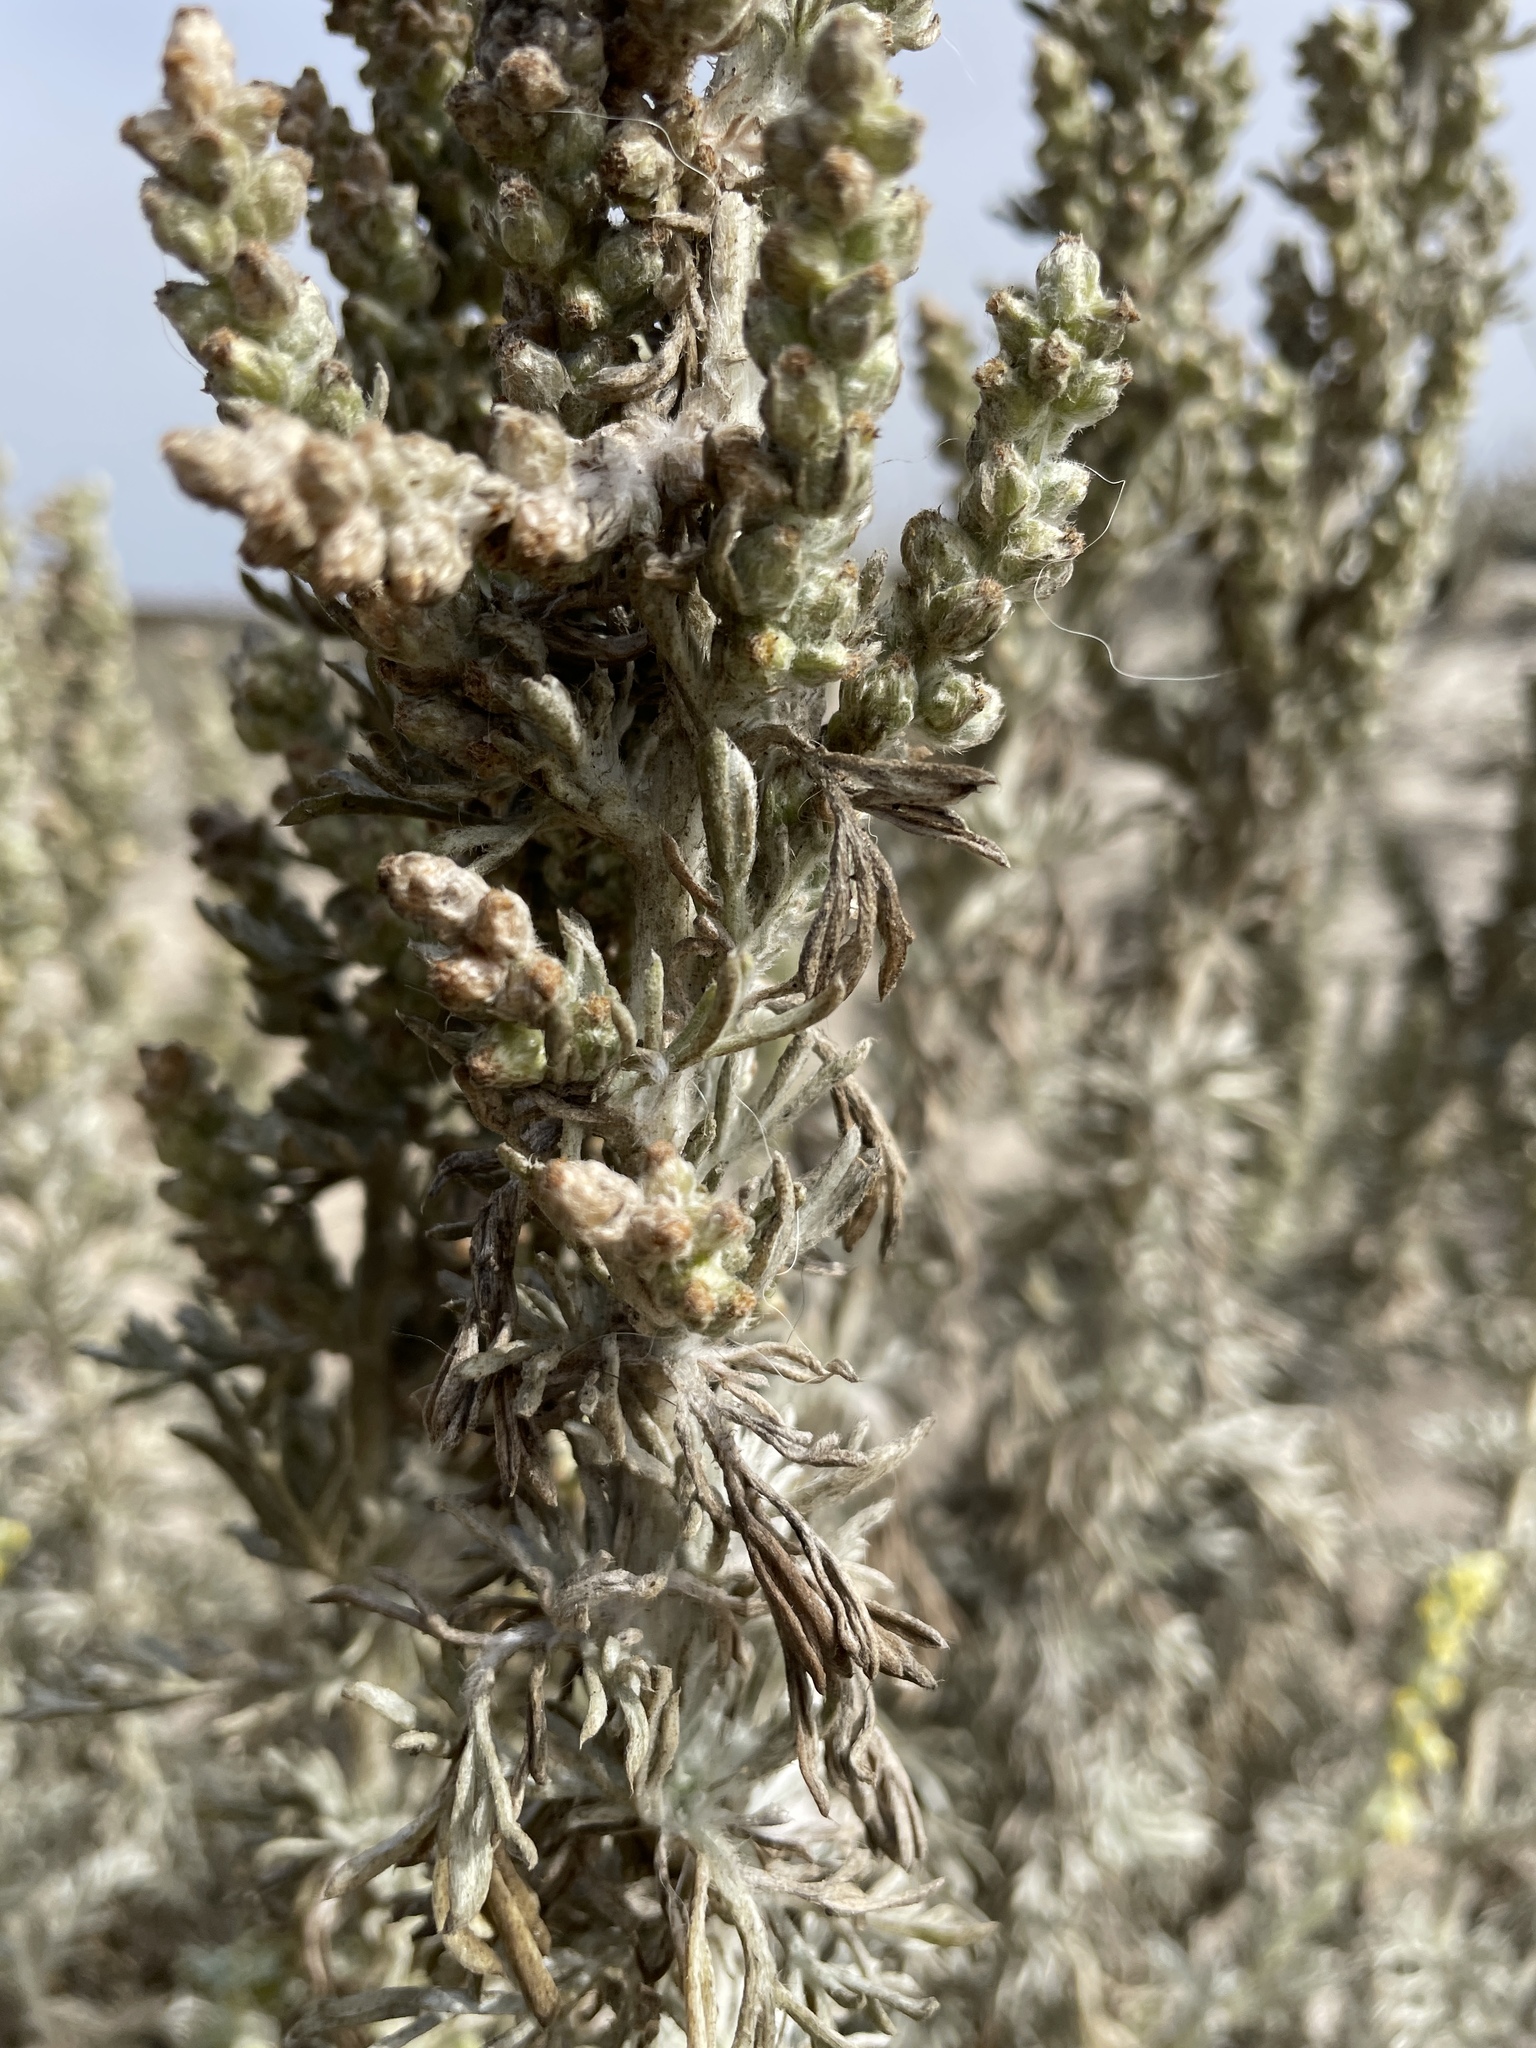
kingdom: Plantae
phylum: Tracheophyta
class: Magnoliopsida
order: Asterales
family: Asteraceae
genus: Artemisia
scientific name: Artemisia pycnocephala
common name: Coastal sagewort
